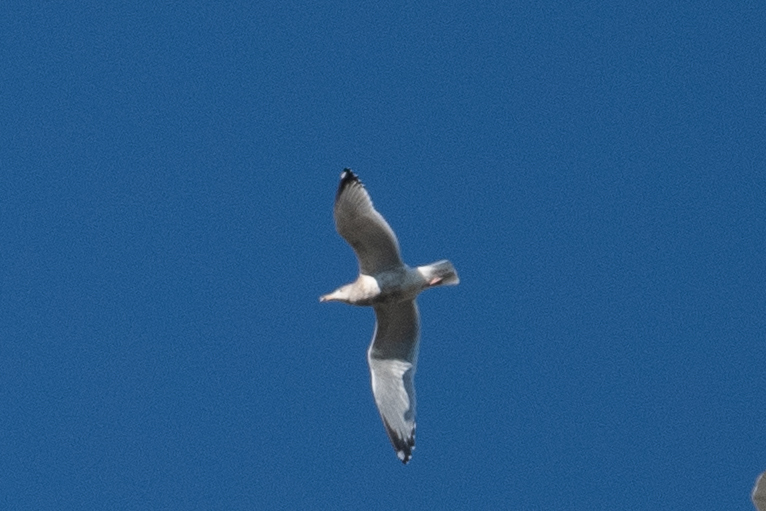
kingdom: Animalia
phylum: Chordata
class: Aves
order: Charadriiformes
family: Laridae
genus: Larus
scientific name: Larus argentatus
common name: Herring gull
